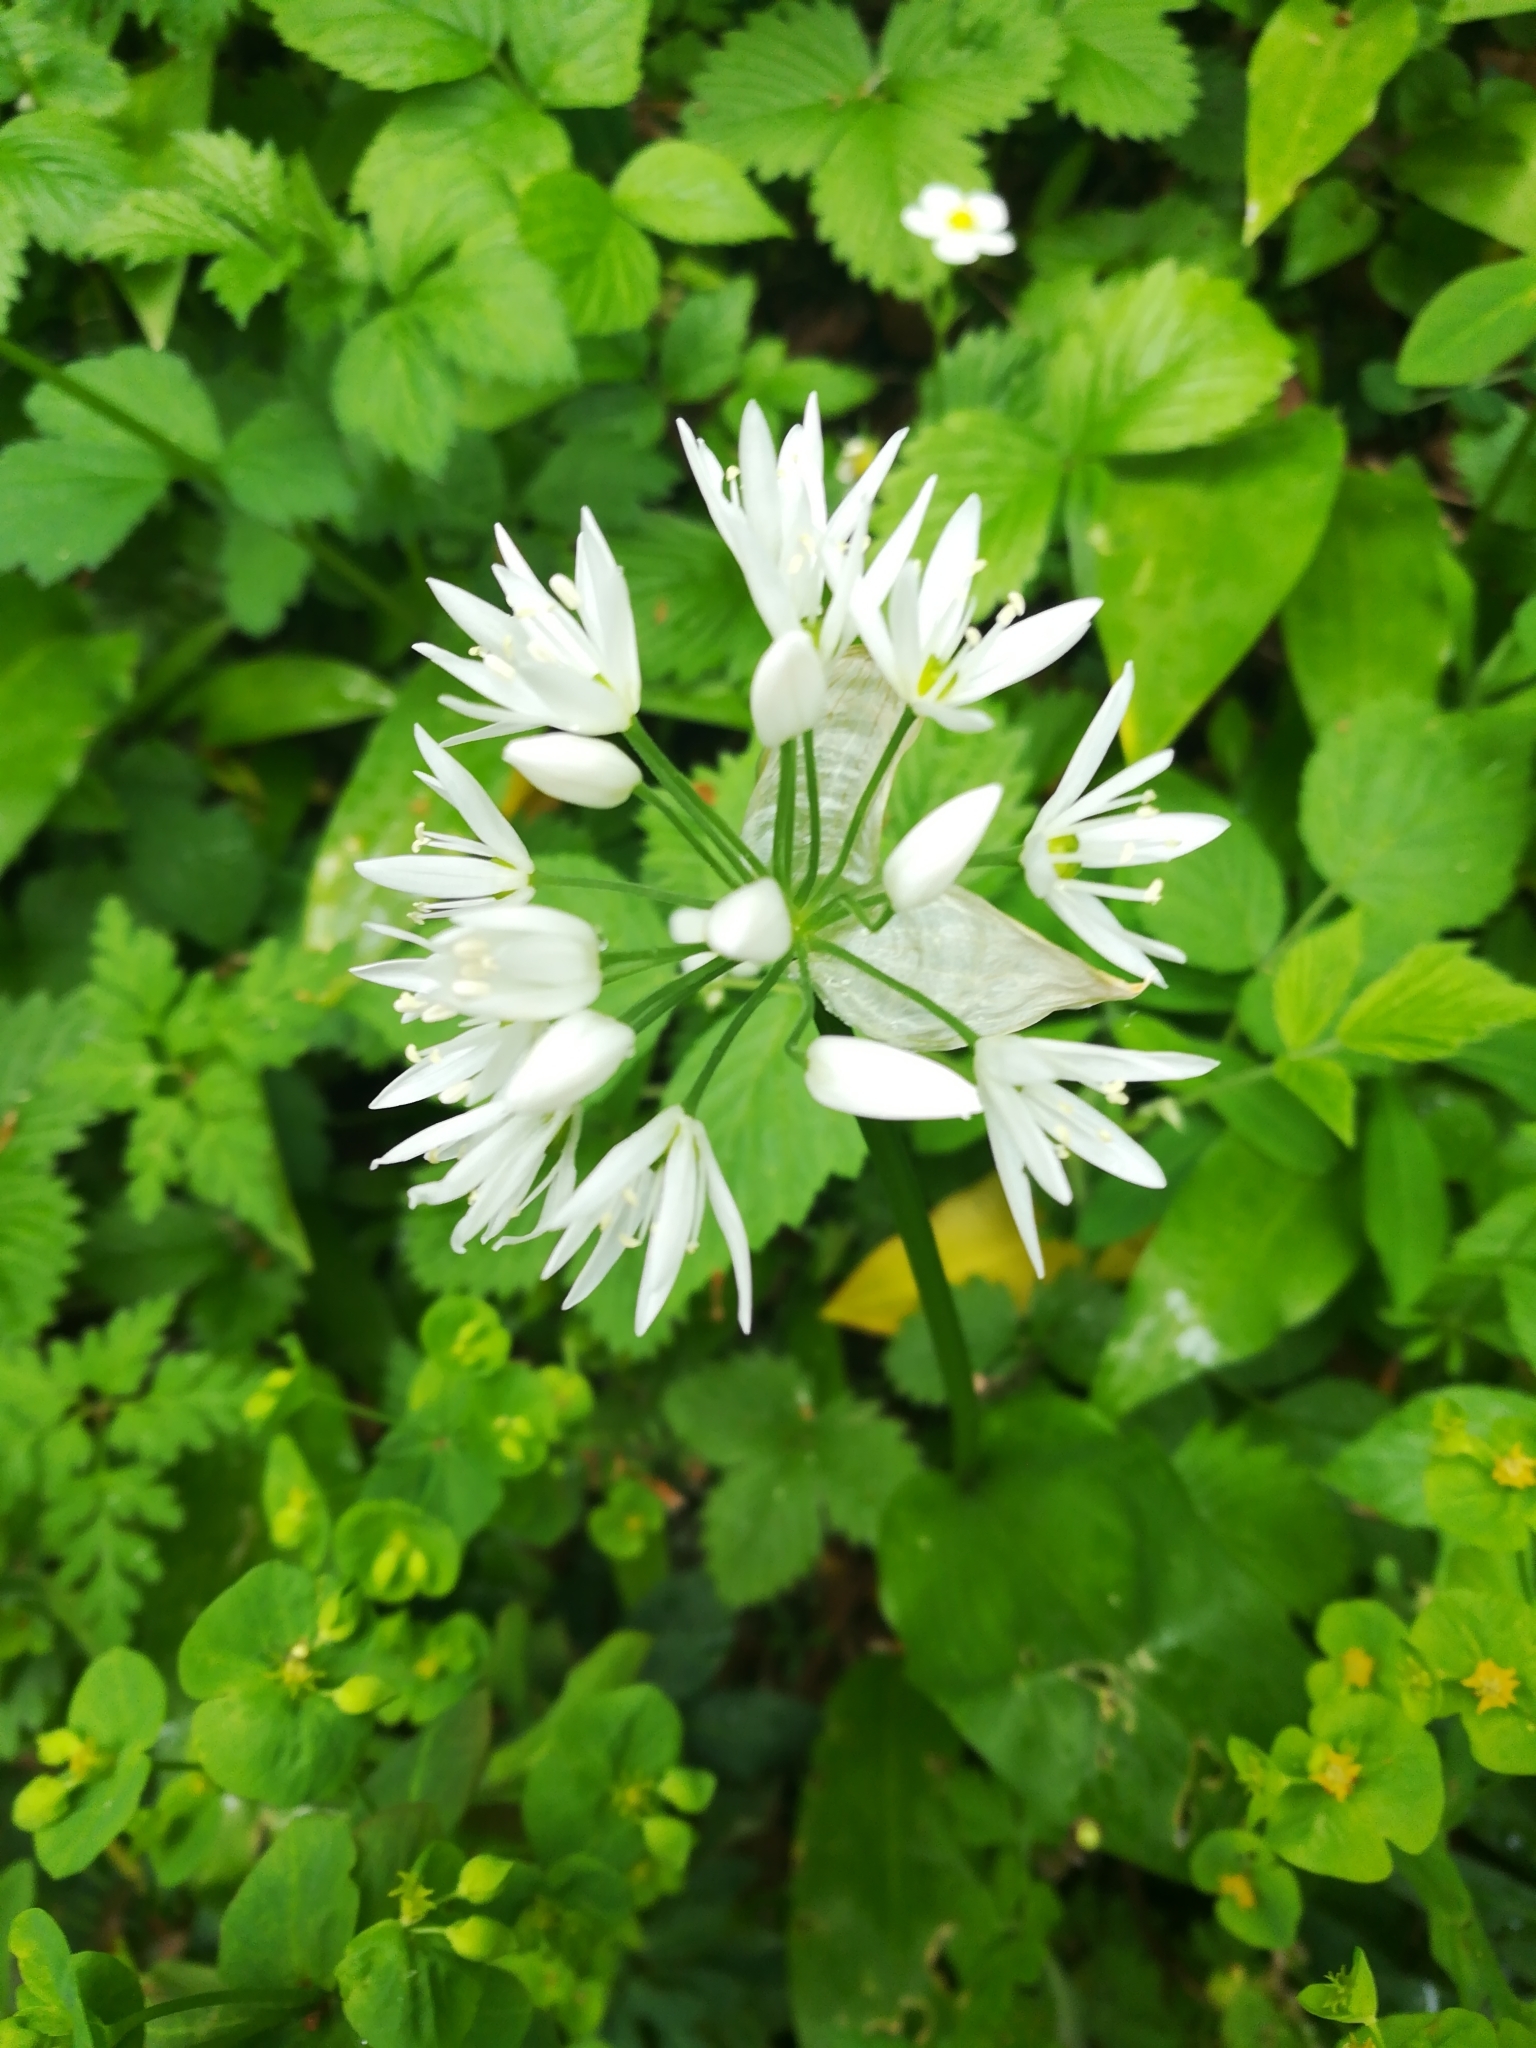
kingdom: Plantae
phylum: Tracheophyta
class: Liliopsida
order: Asparagales
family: Amaryllidaceae
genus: Allium
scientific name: Allium ursinum
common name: Ramsons
